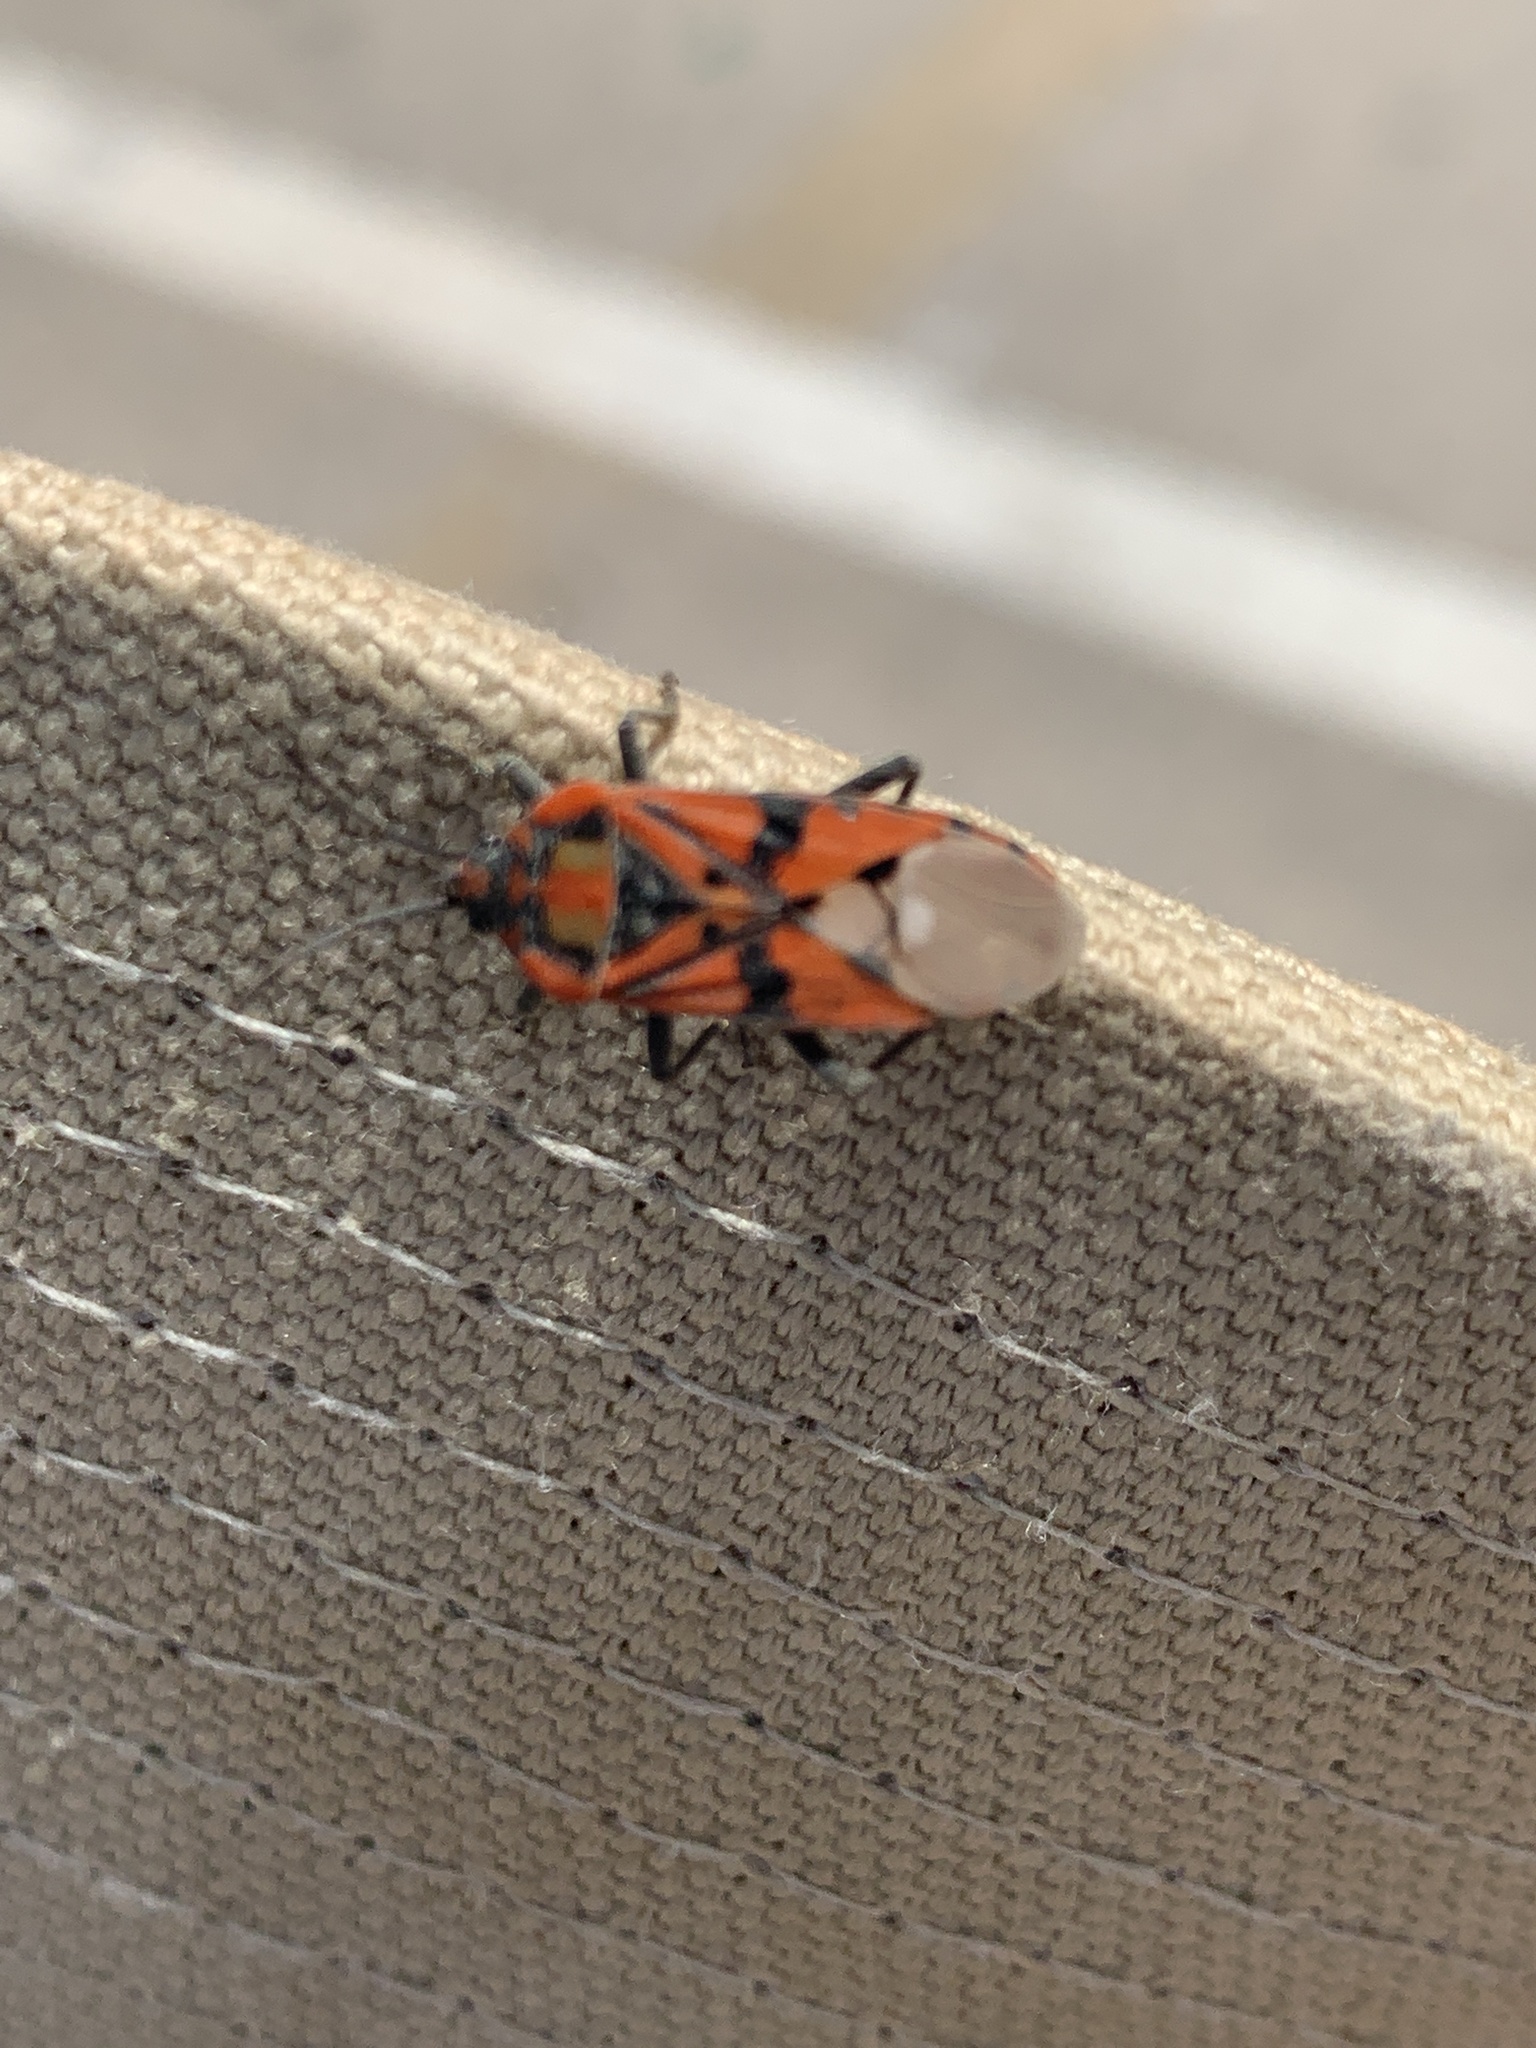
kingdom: Animalia
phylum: Arthropoda
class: Insecta
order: Hemiptera
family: Lygaeidae
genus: Spilostethus
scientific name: Spilostethus pandurus
